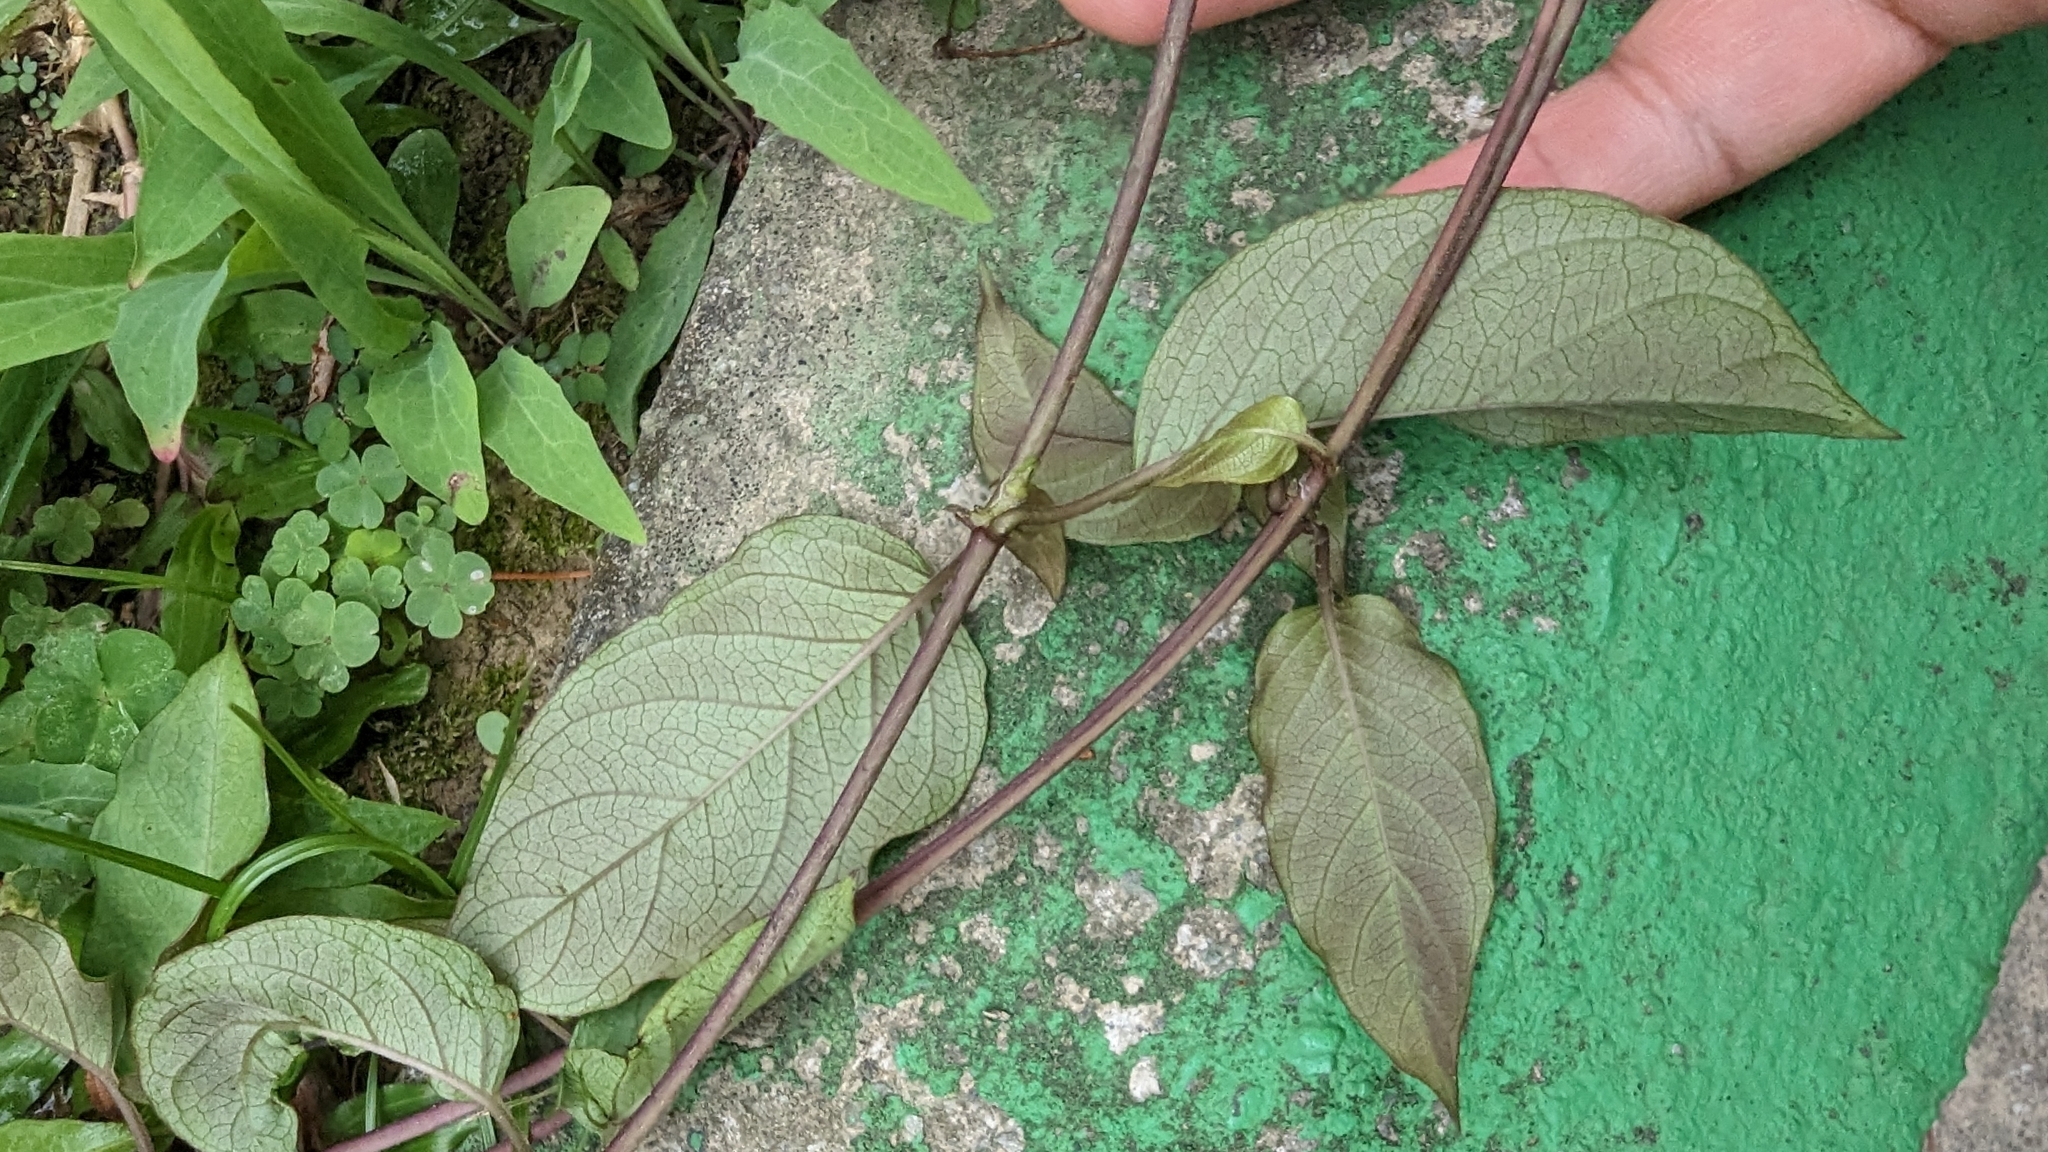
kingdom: Plantae
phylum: Tracheophyta
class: Magnoliopsida
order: Gentianales
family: Rubiaceae
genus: Paederia
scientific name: Paederia foetida
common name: Stinkvine
